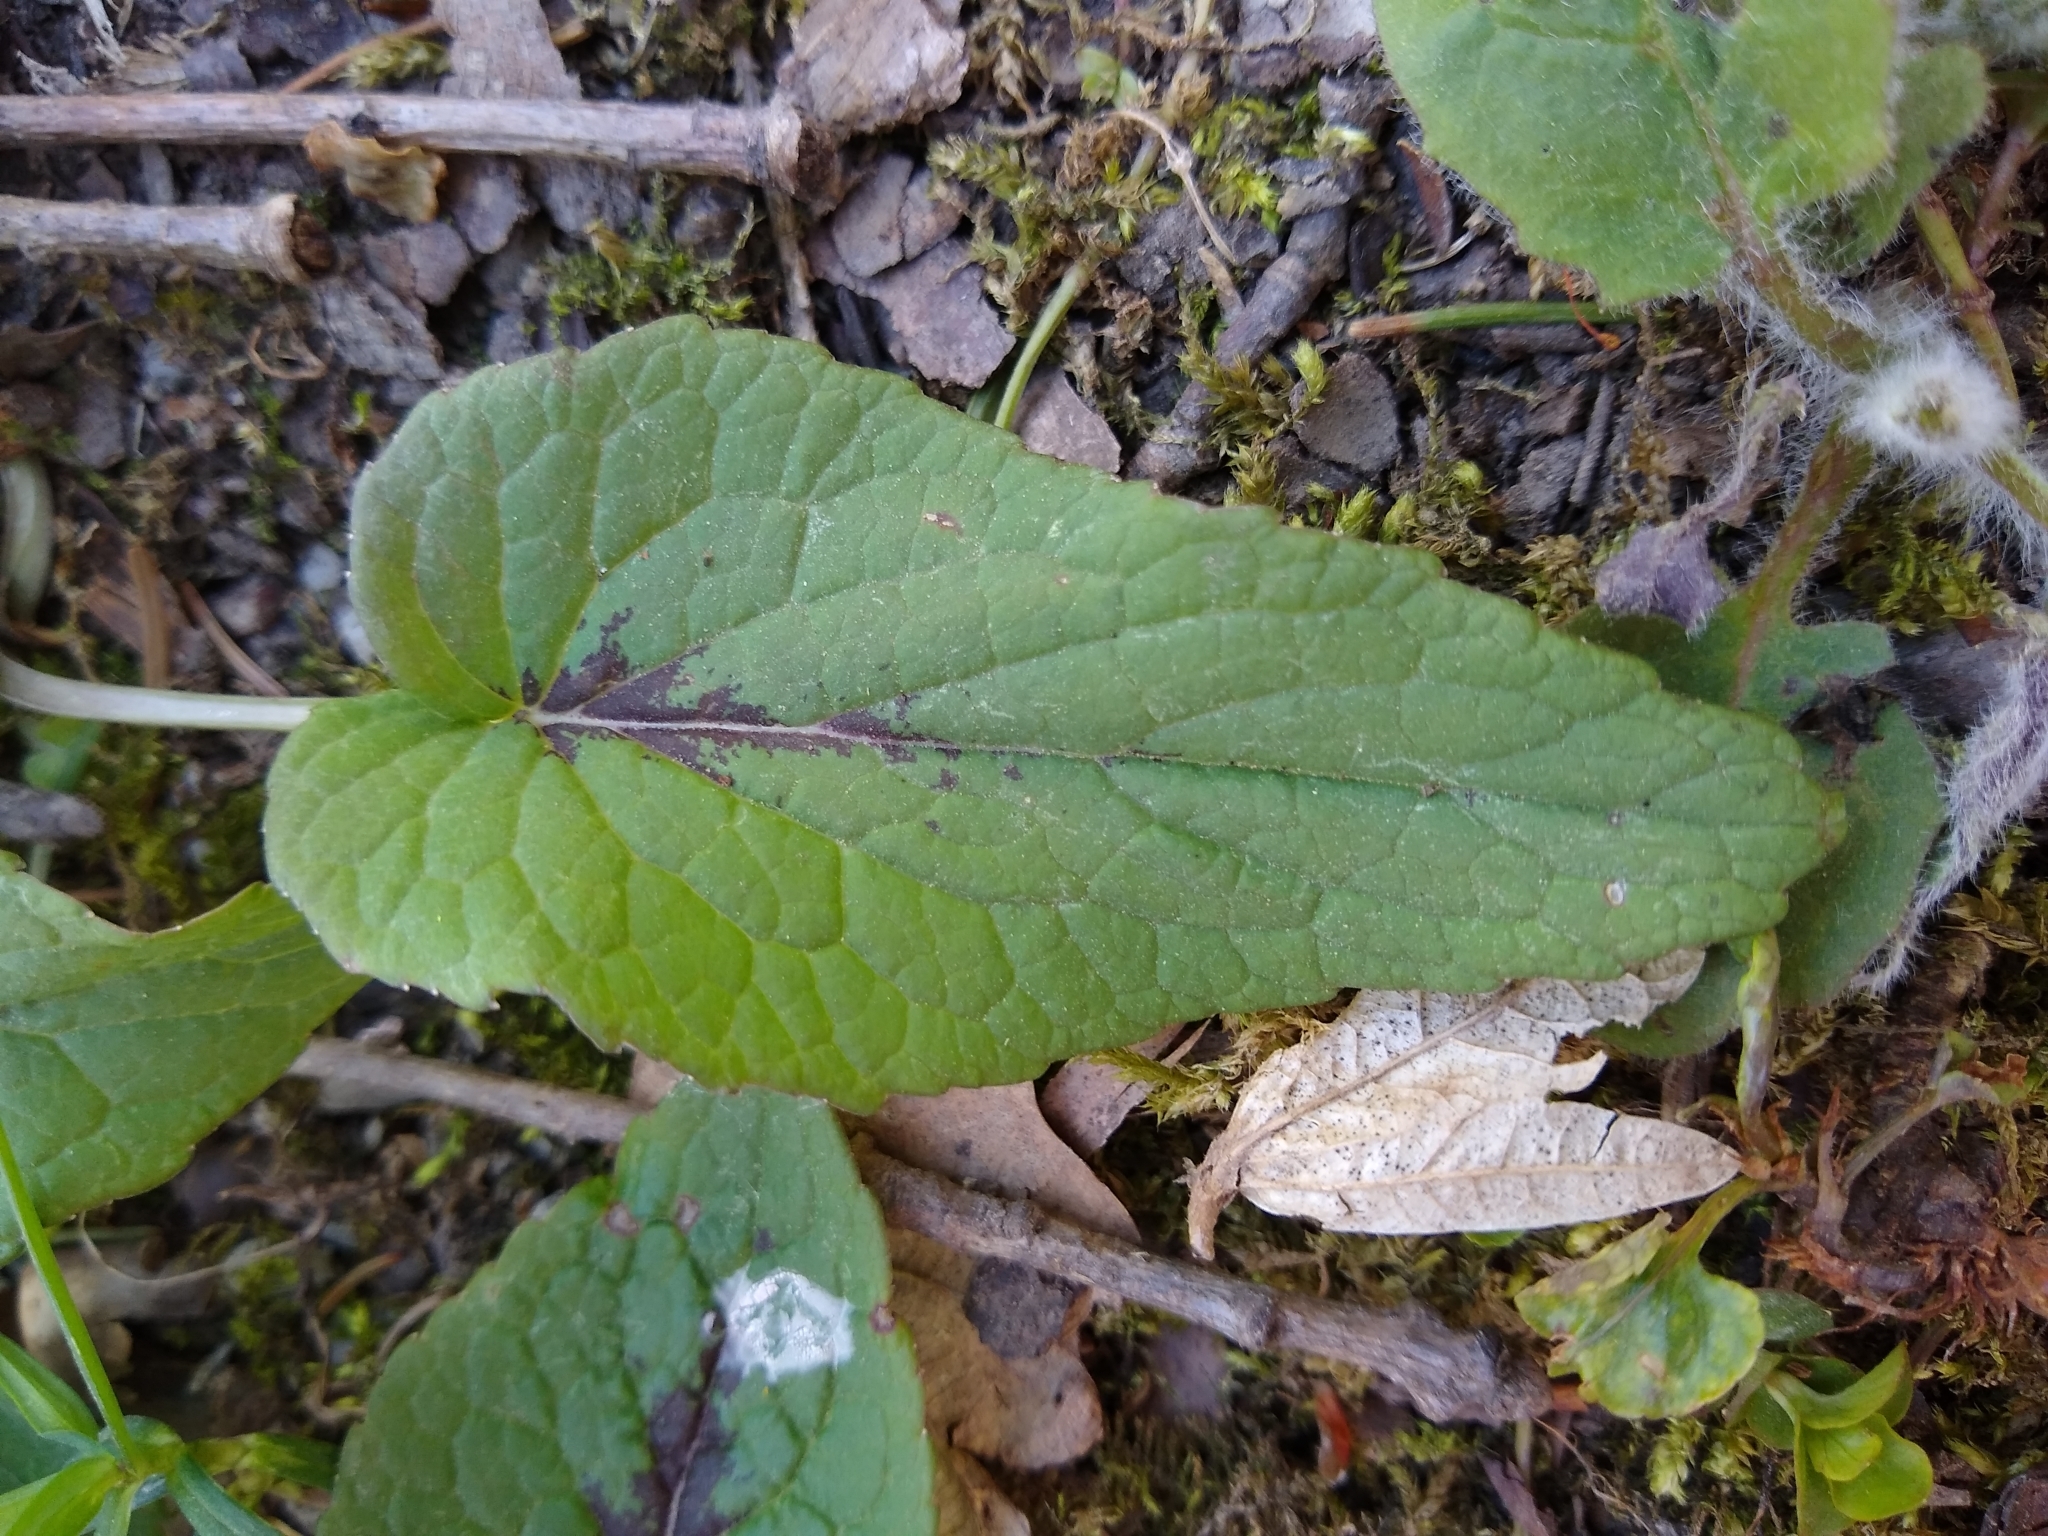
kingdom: Plantae
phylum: Tracheophyta
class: Magnoliopsida
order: Asterales
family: Campanulaceae
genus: Phyteuma
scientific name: Phyteuma spicatum
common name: Spiked rampion
